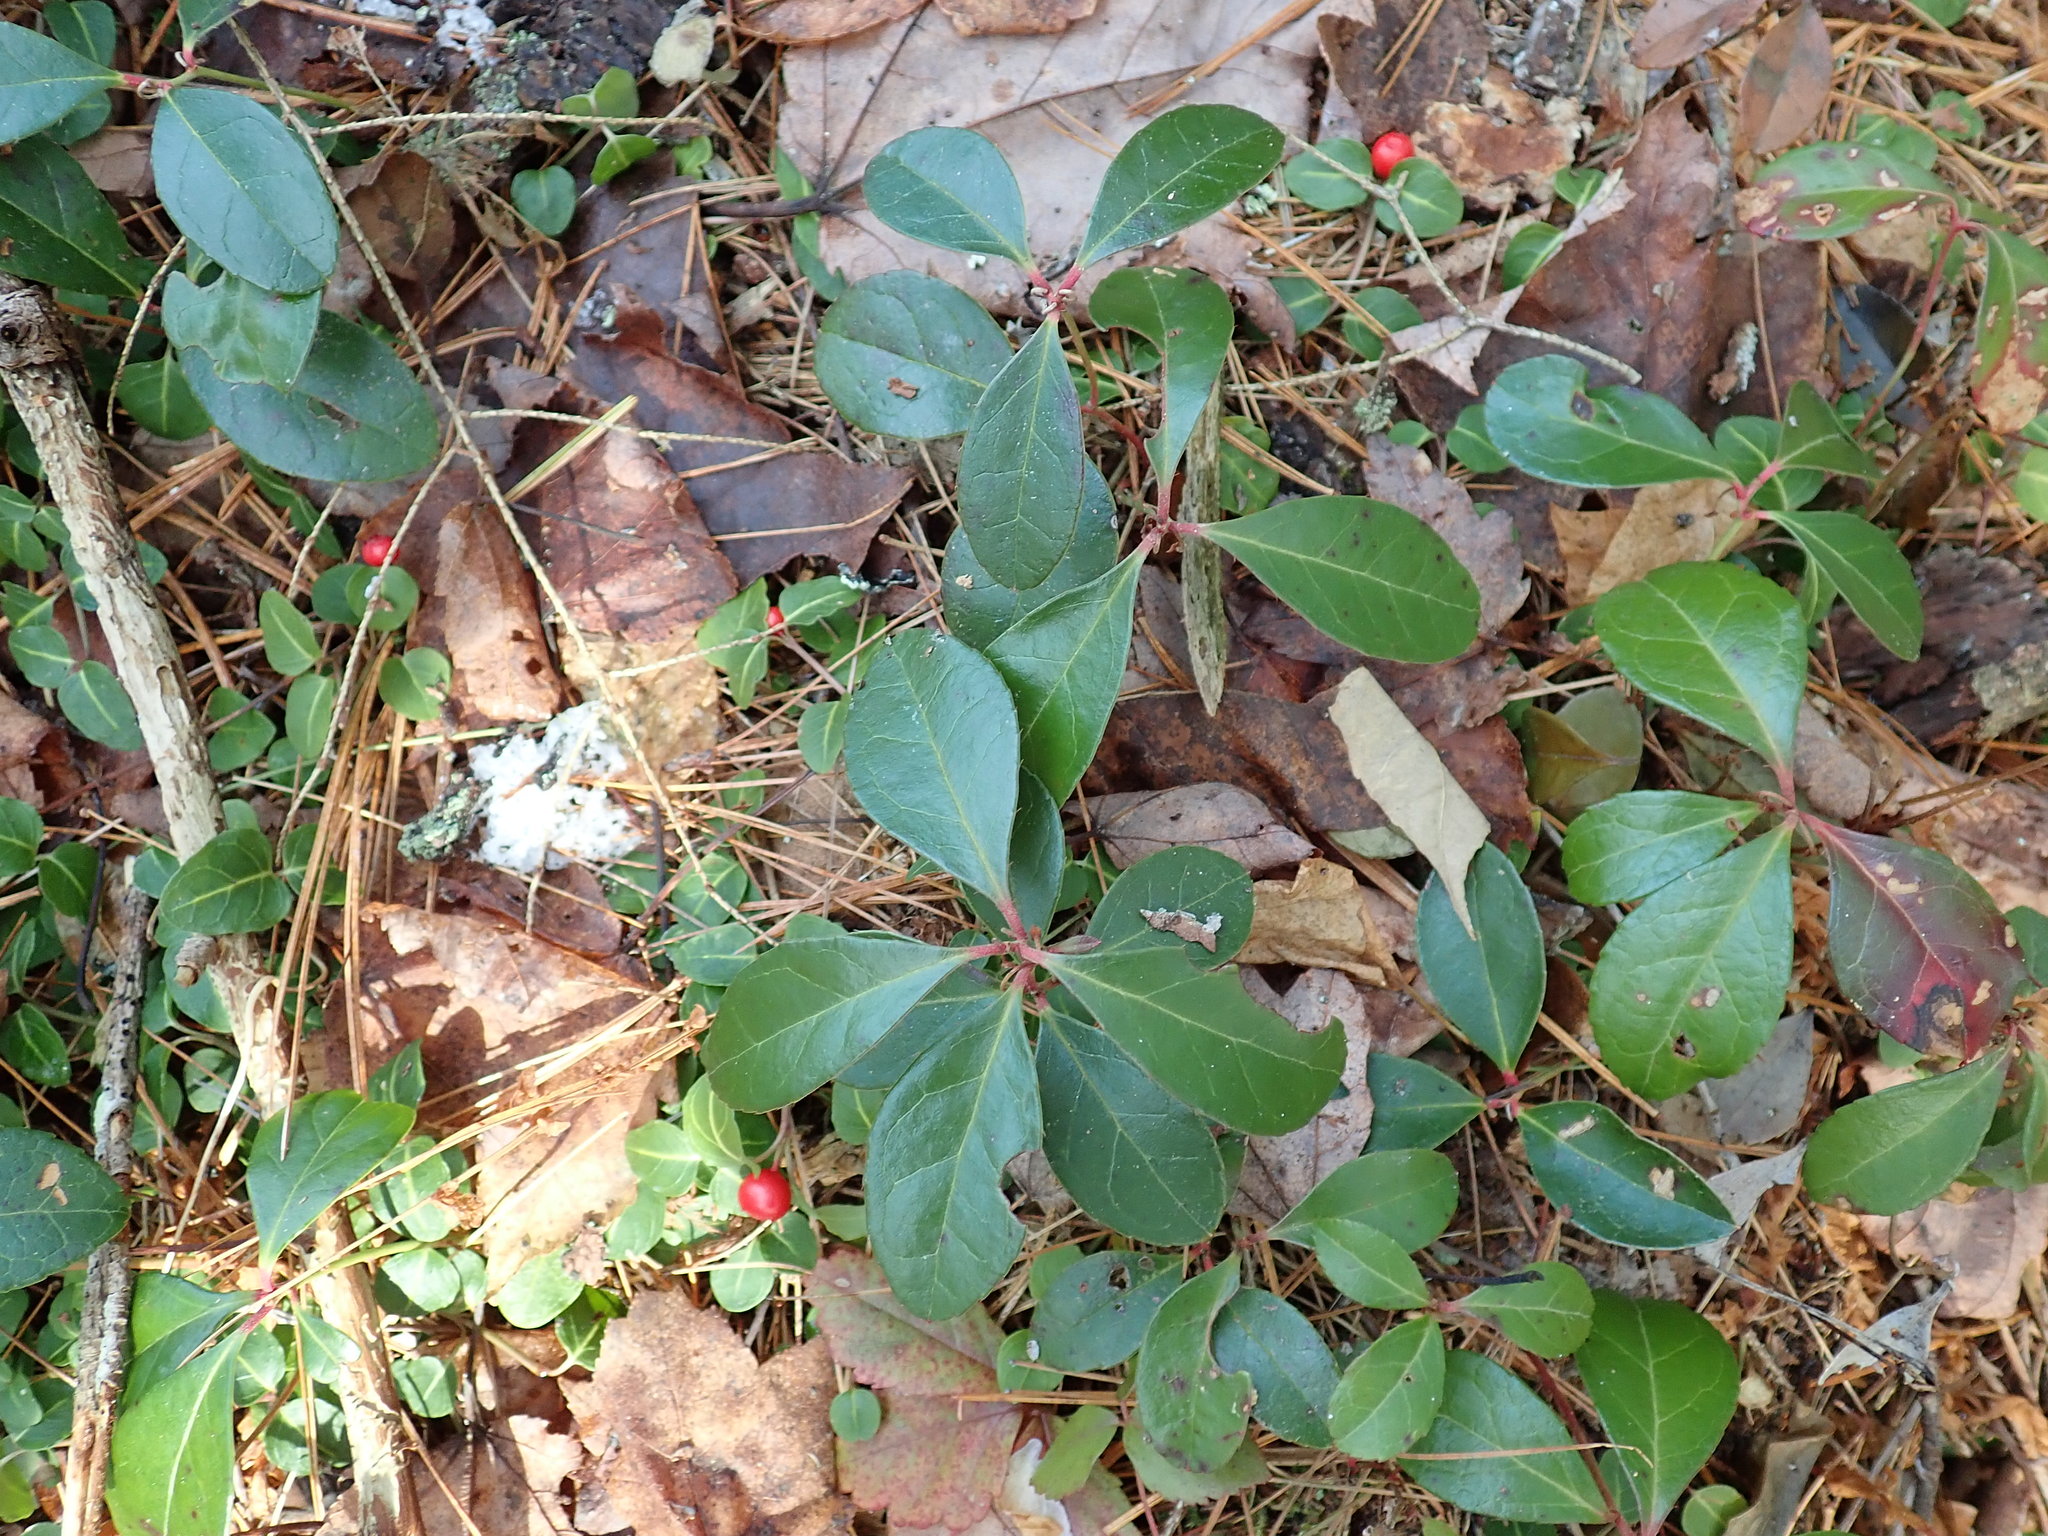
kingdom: Plantae
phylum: Tracheophyta
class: Magnoliopsida
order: Ericales
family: Ericaceae
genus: Gaultheria
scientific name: Gaultheria procumbens
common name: Checkerberry
